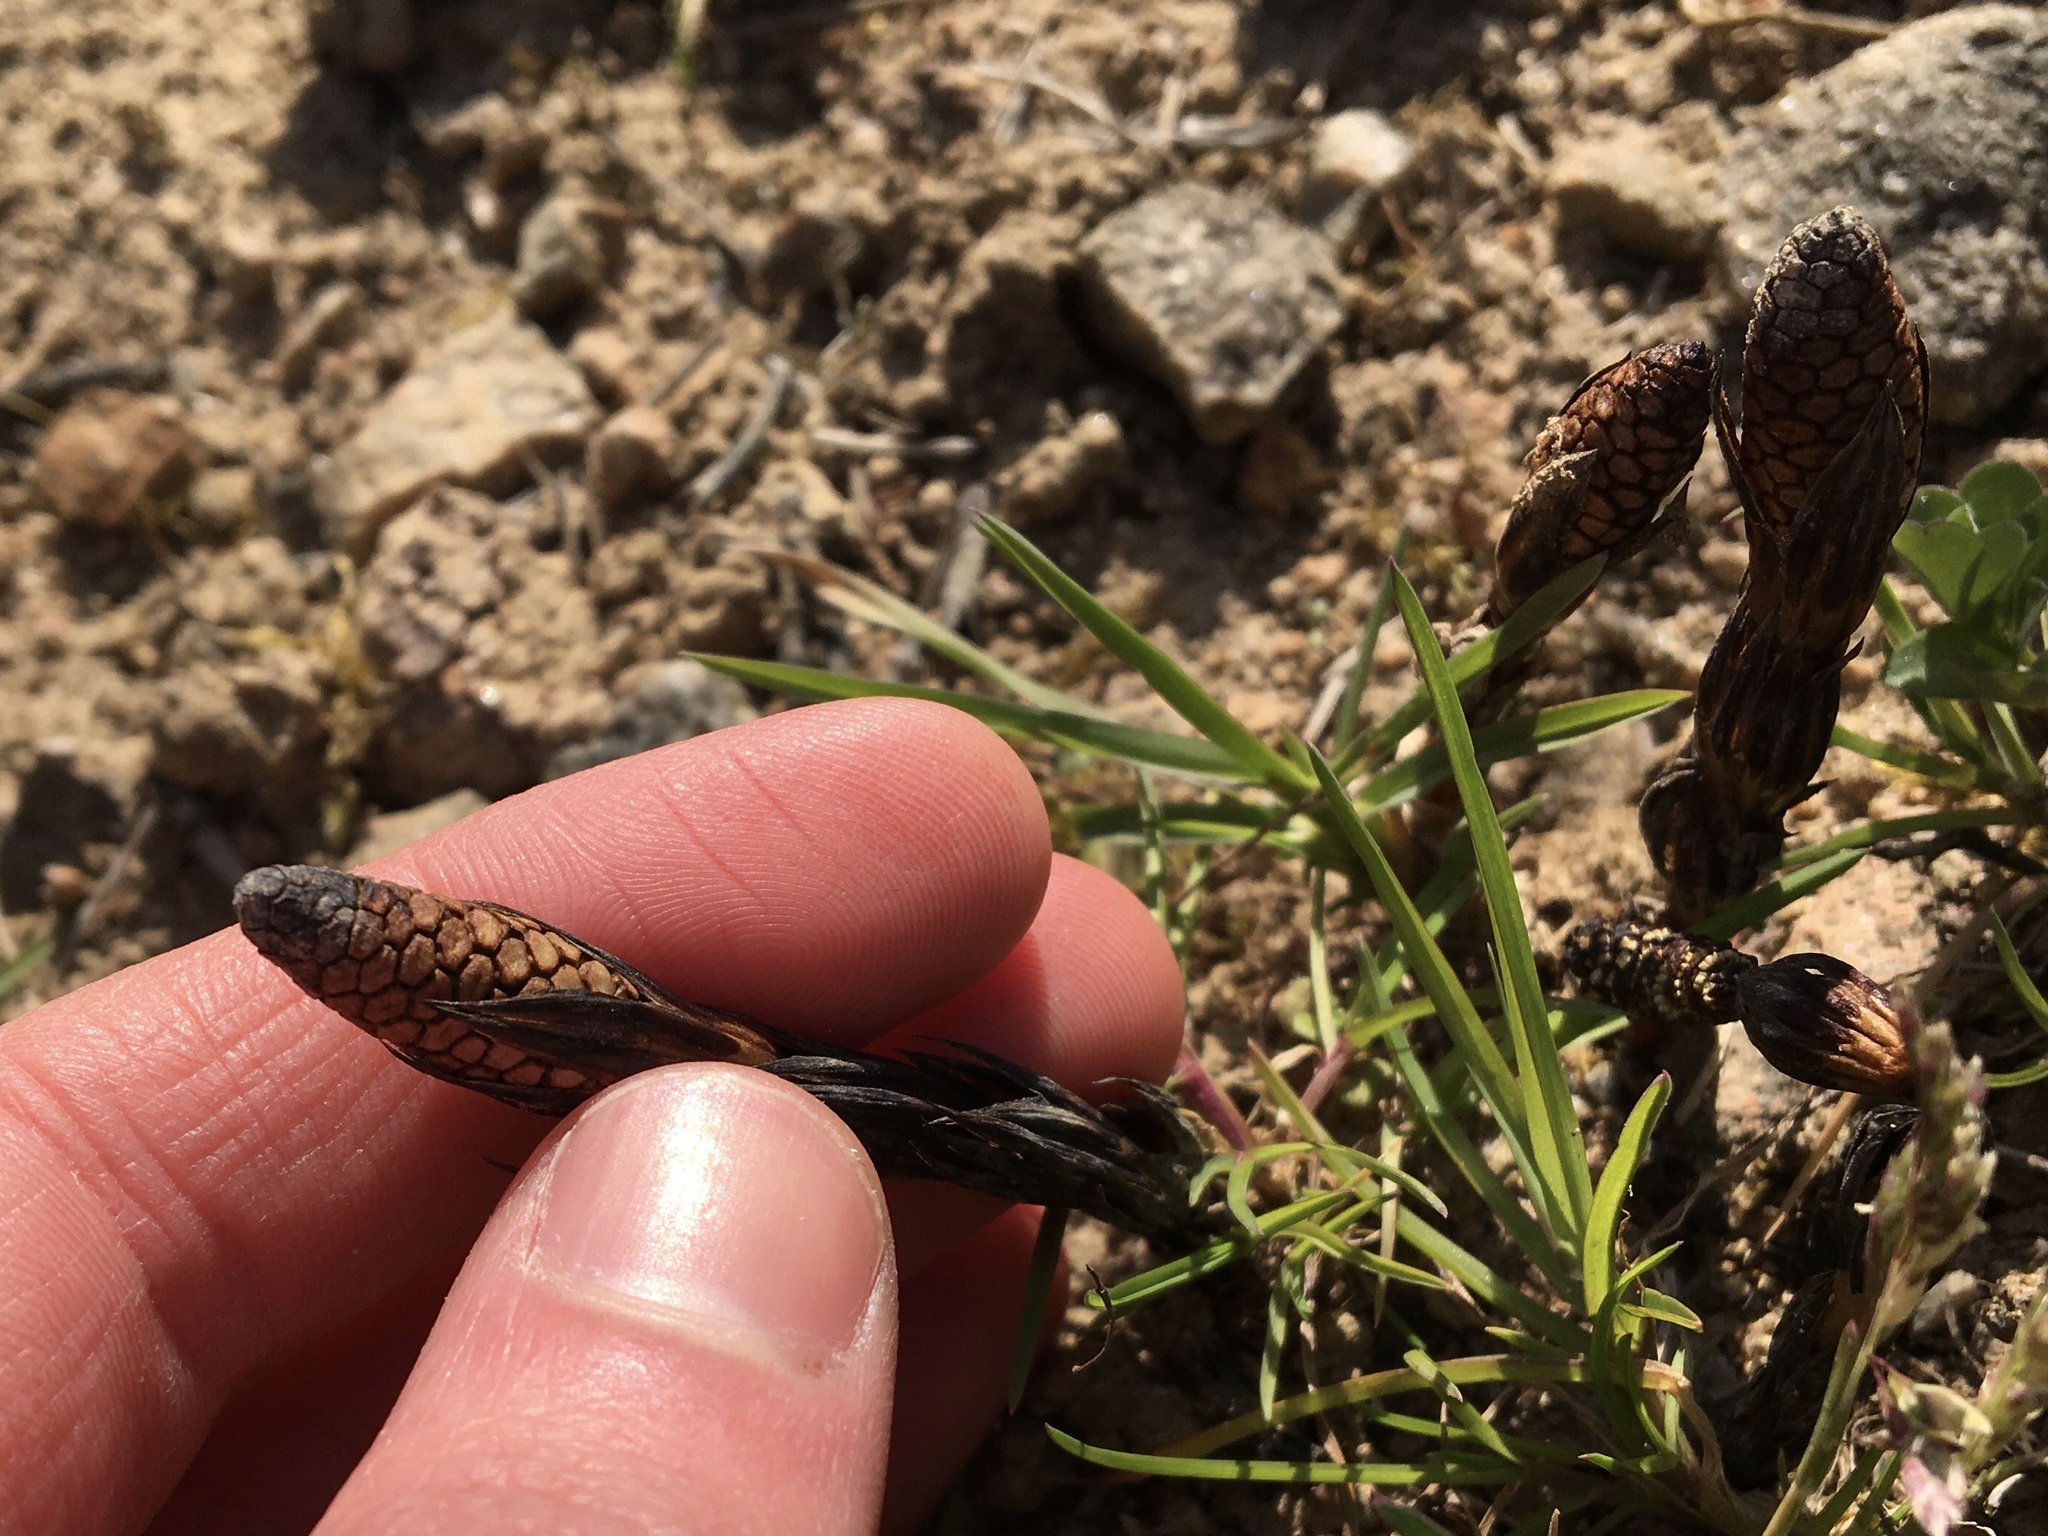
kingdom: Plantae
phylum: Tracheophyta
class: Polypodiopsida
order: Equisetales
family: Equisetaceae
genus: Equisetum
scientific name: Equisetum arvense
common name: Field horsetail
